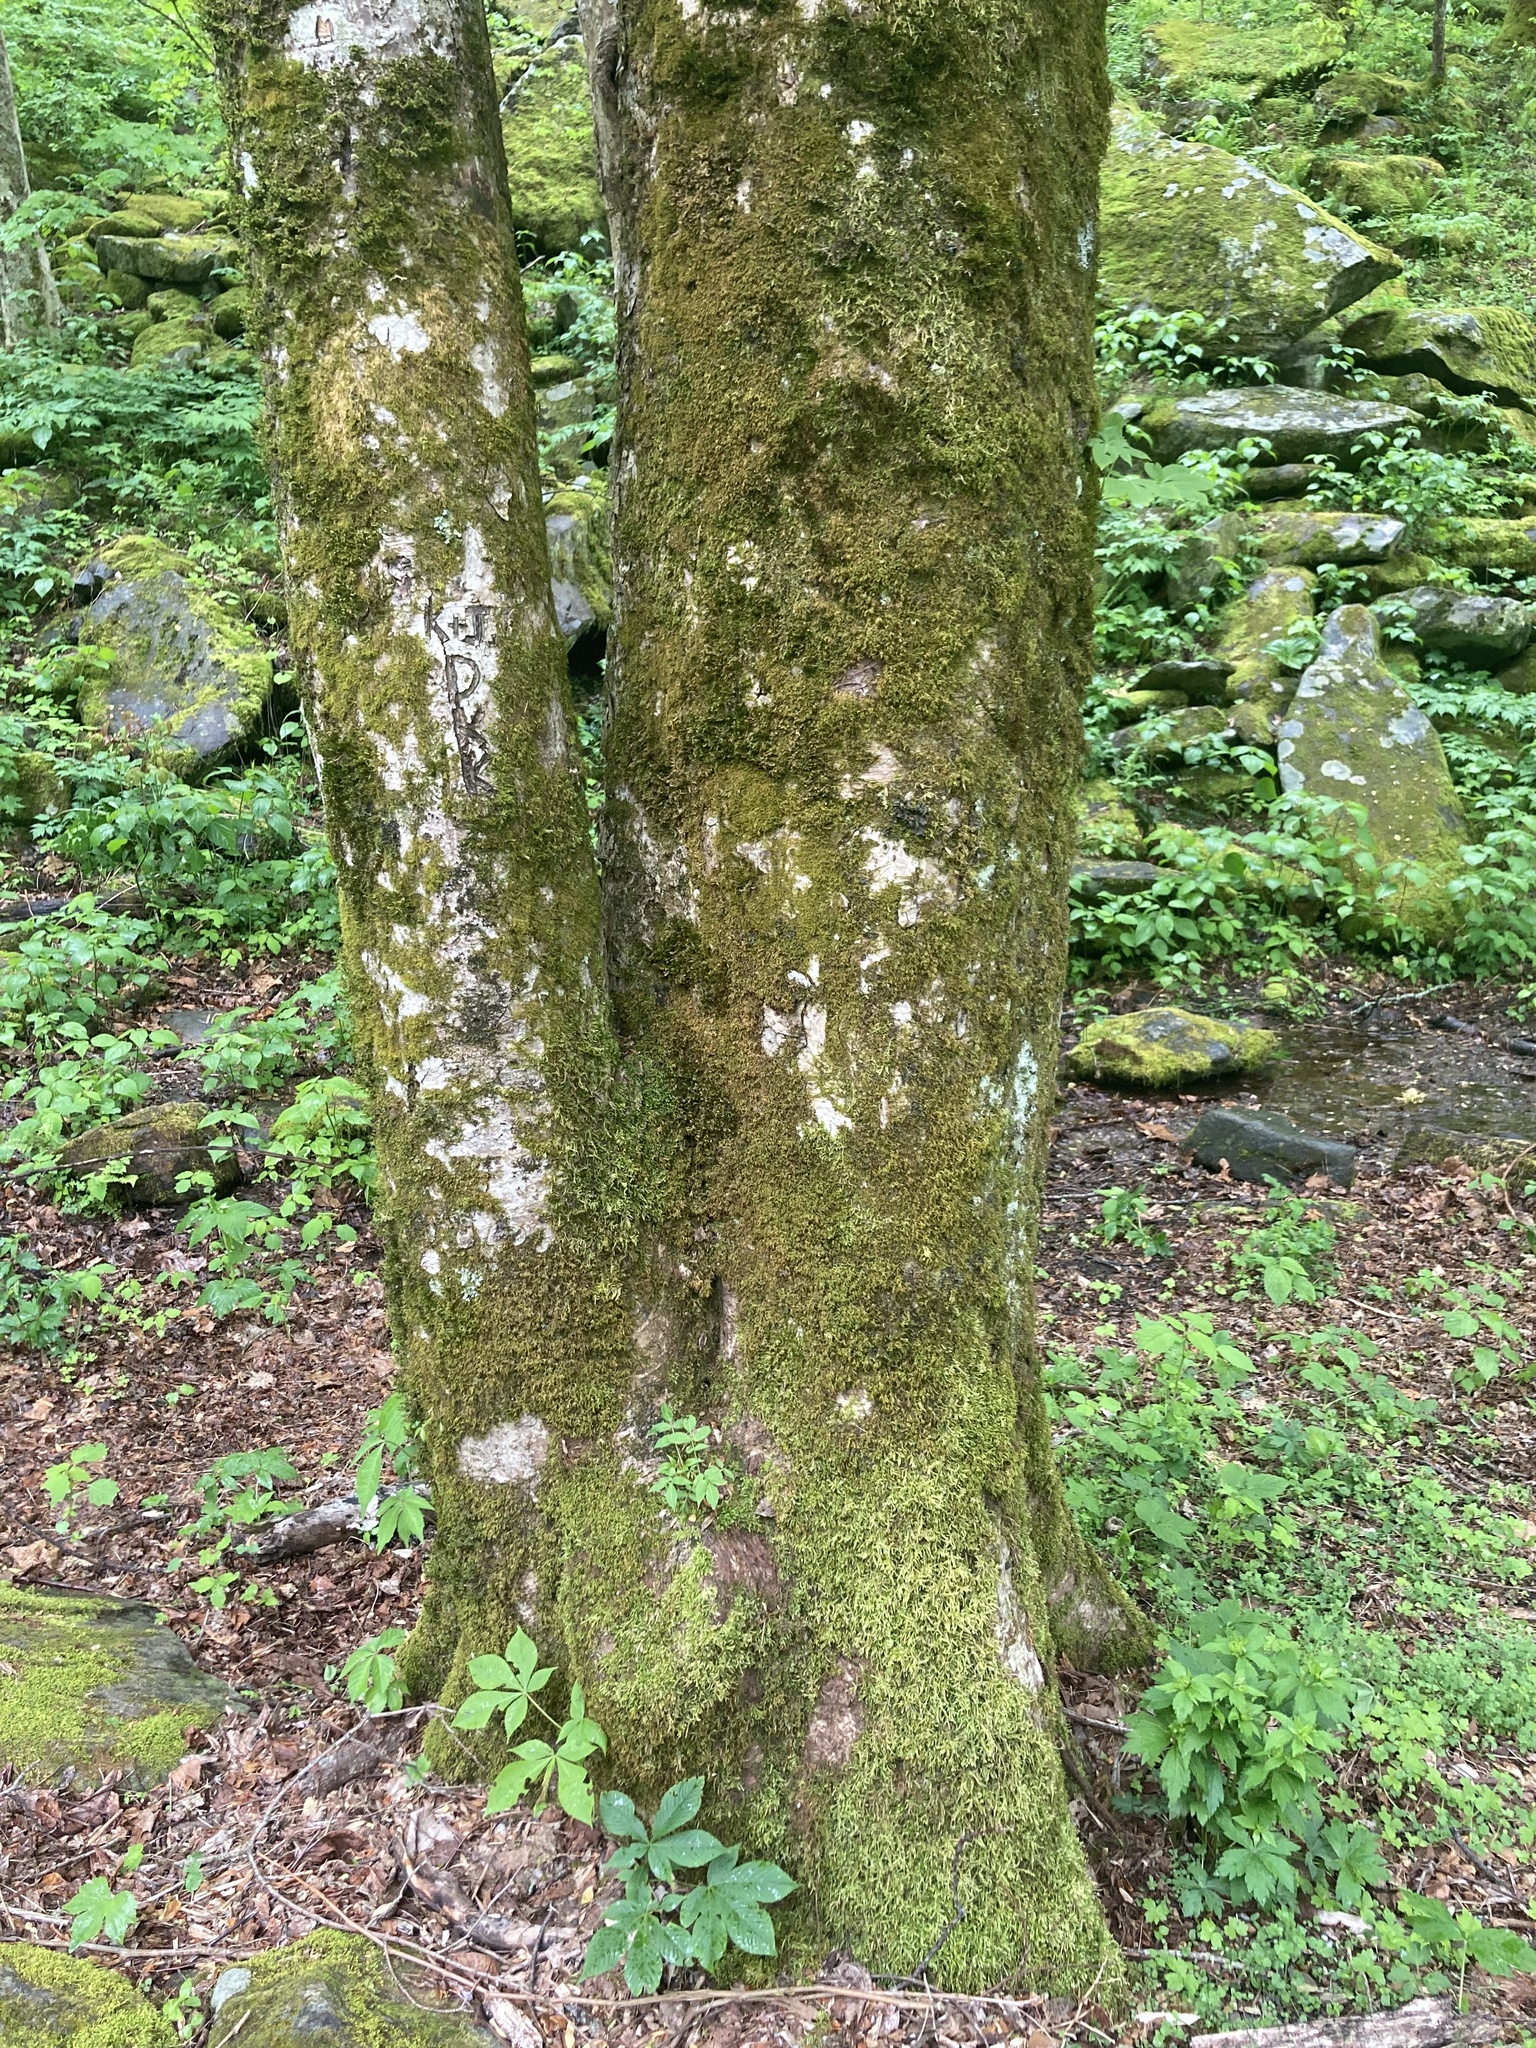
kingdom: Plantae
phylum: Tracheophyta
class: Magnoliopsida
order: Sapindales
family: Sapindaceae
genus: Aesculus
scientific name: Aesculus flava
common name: Yellow buckeye
